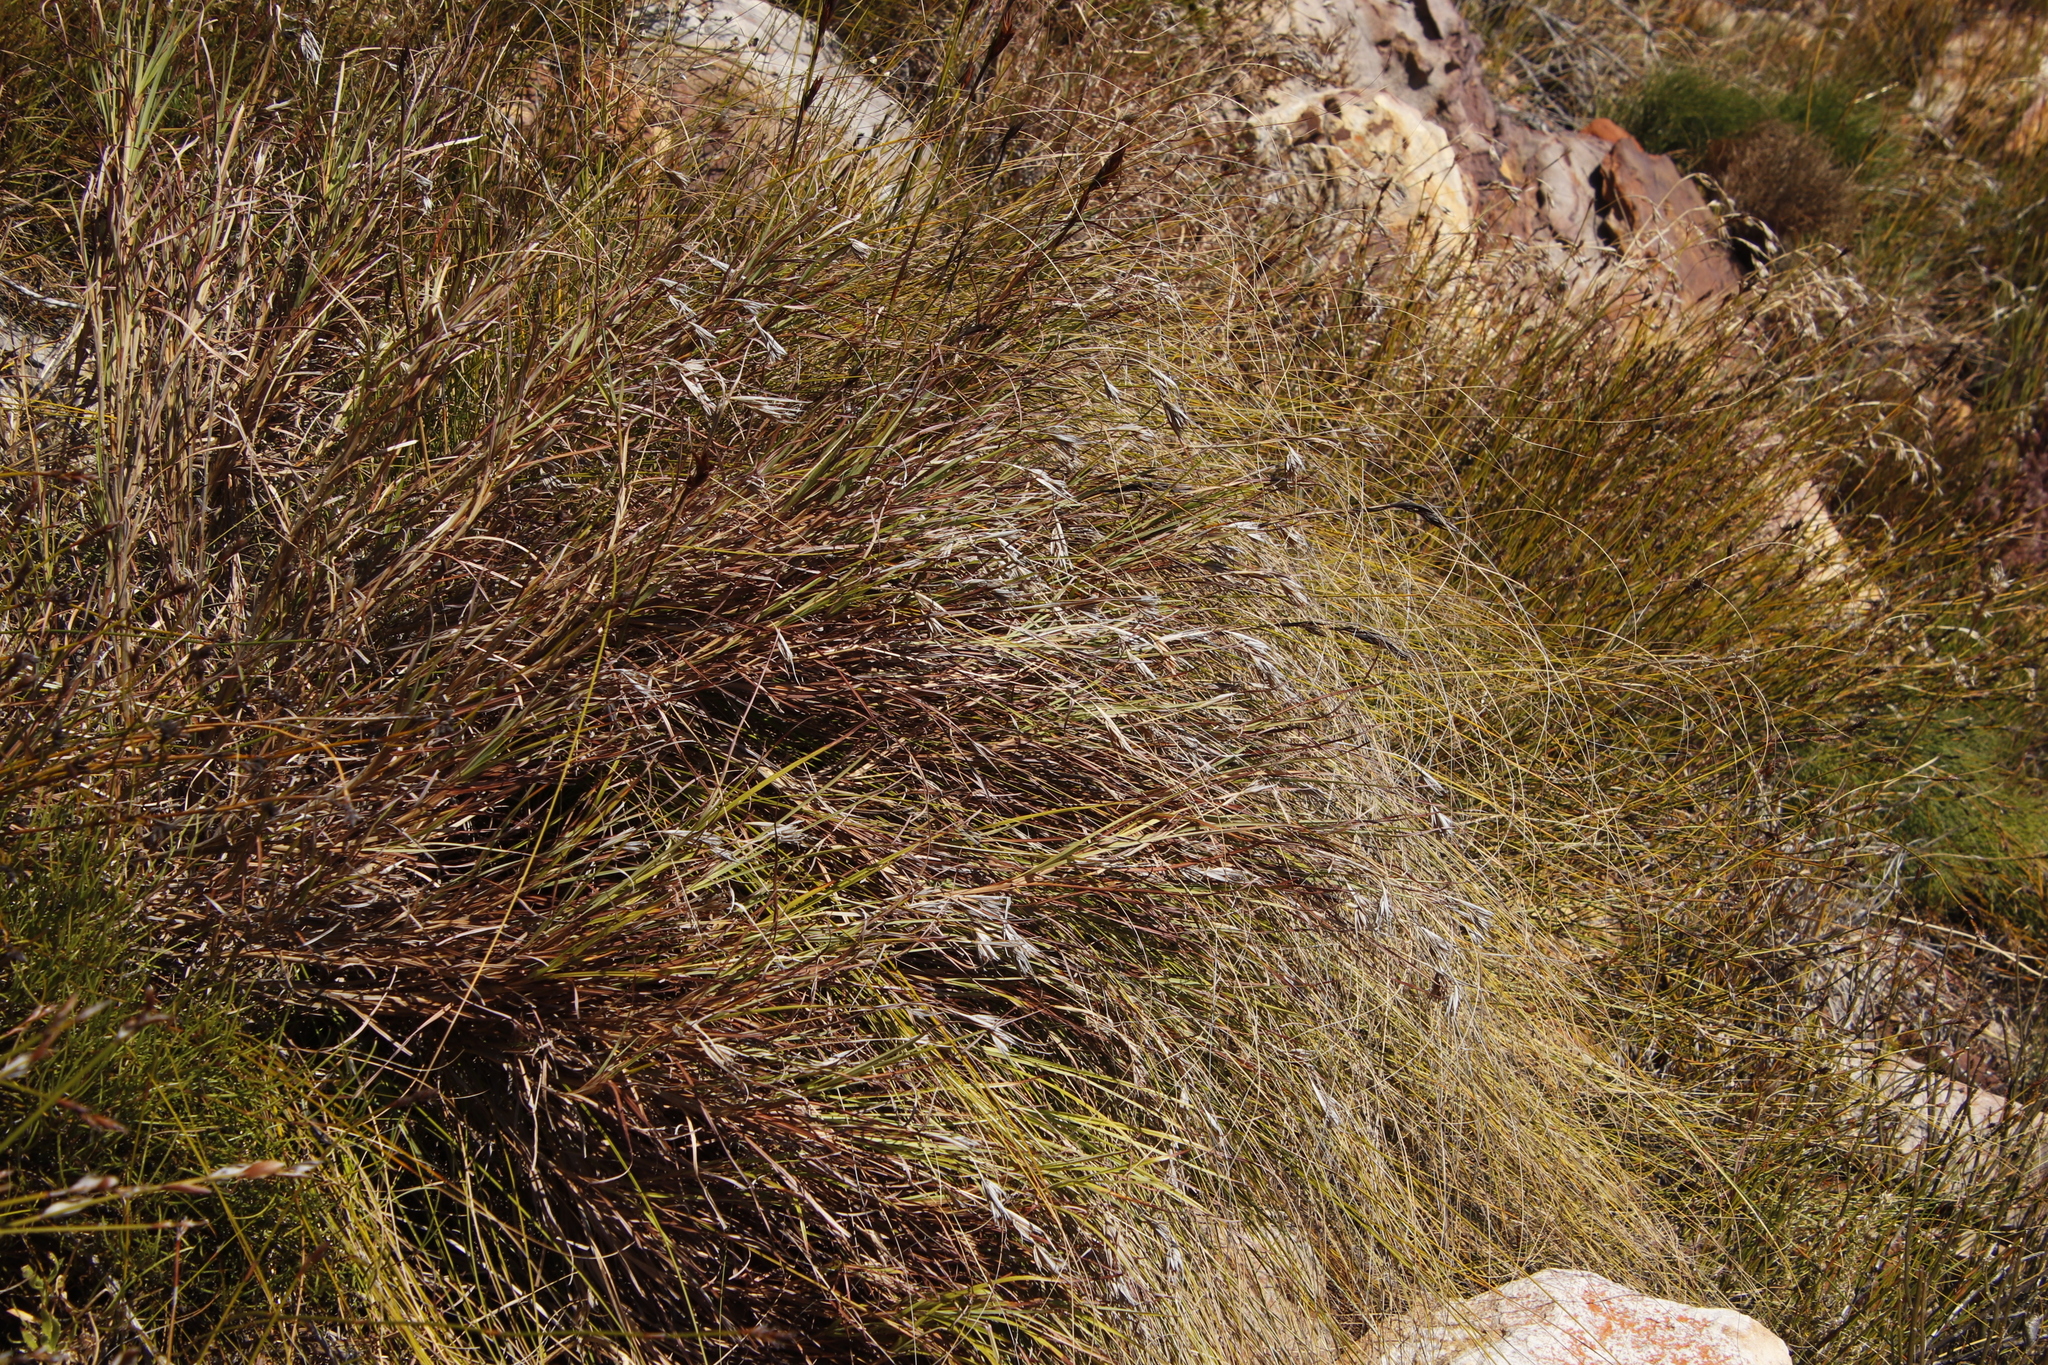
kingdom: Plantae
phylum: Tracheophyta
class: Liliopsida
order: Poales
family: Cyperaceae
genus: Tetraria
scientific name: Tetraria ustulata
